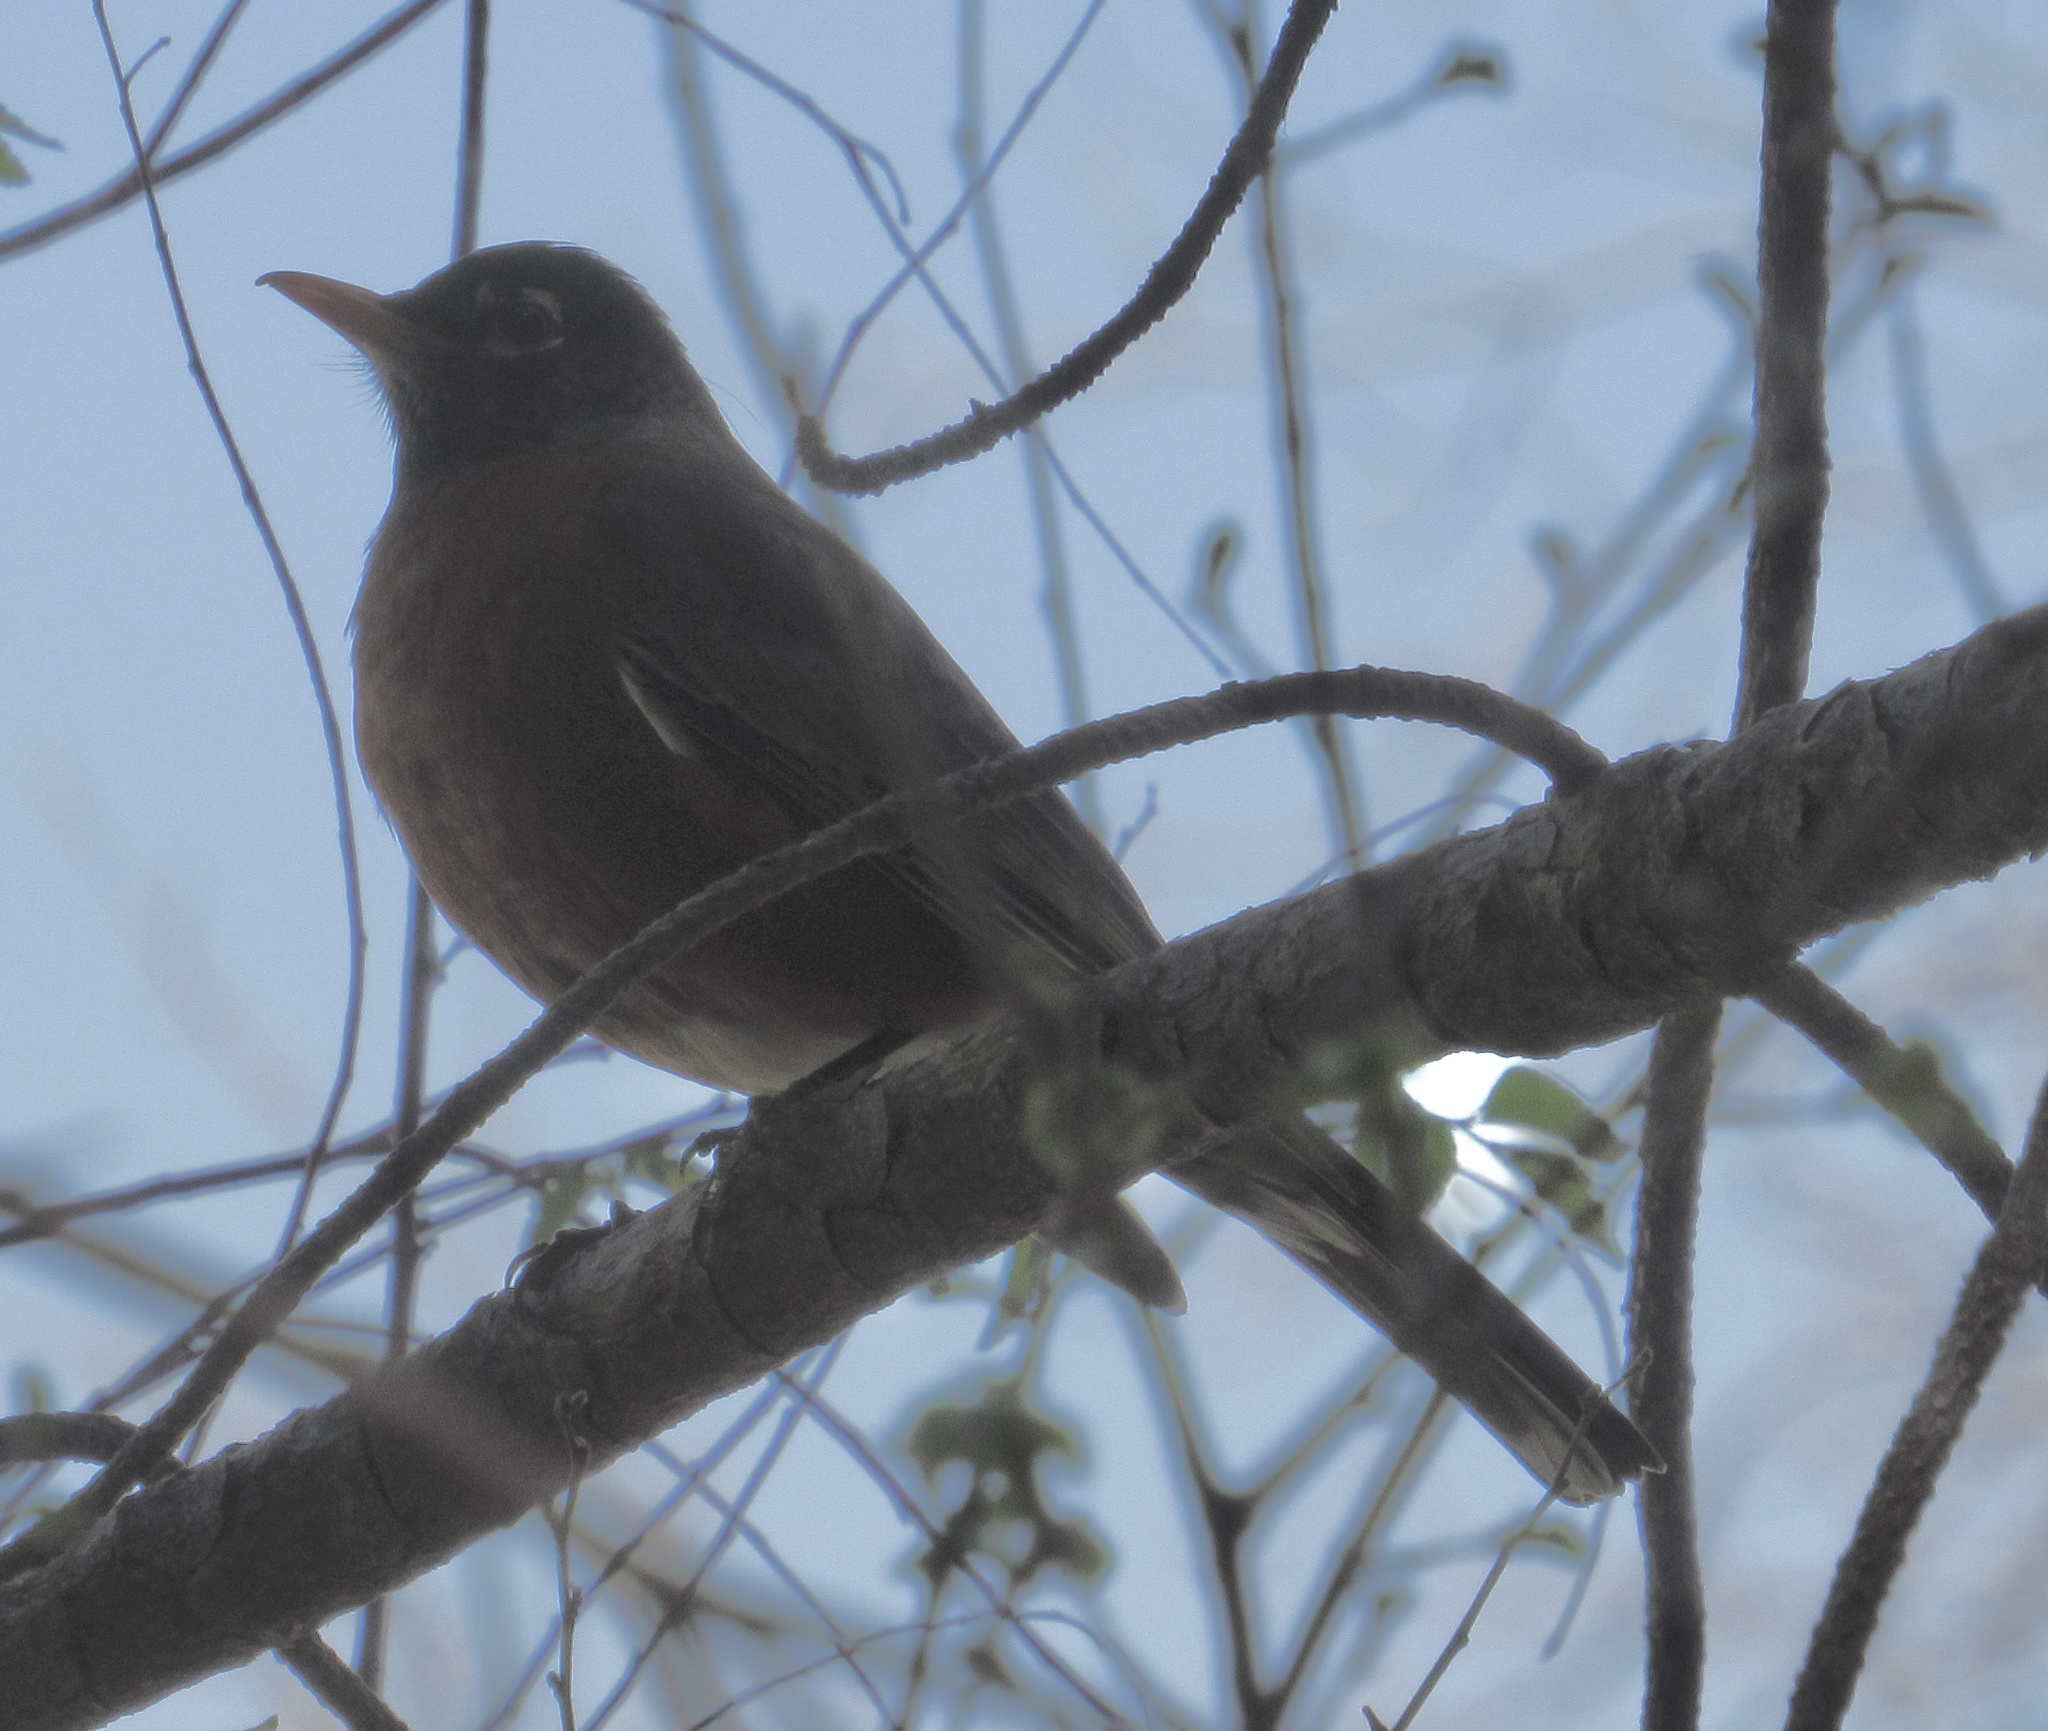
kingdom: Animalia
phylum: Chordata
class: Aves
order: Passeriformes
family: Turdidae
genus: Turdus
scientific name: Turdus migratorius
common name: American robin
